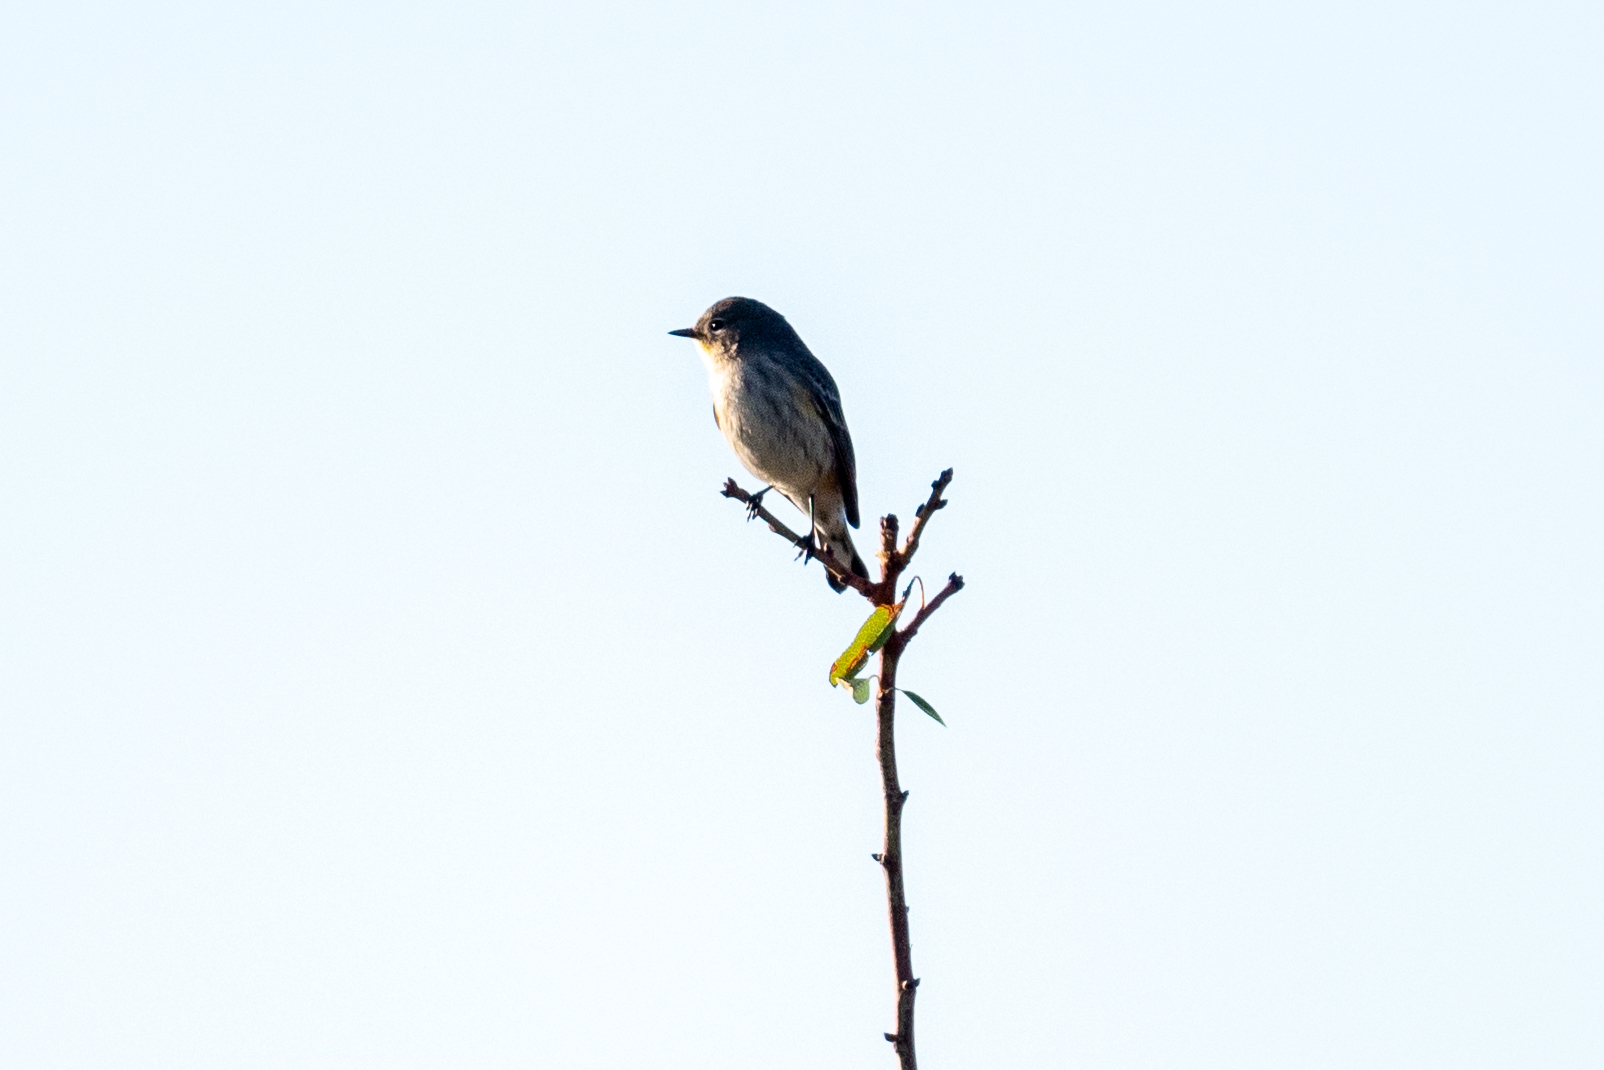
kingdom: Animalia
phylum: Chordata
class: Aves
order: Passeriformes
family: Parulidae
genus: Setophaga
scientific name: Setophaga coronata
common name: Myrtle warbler
